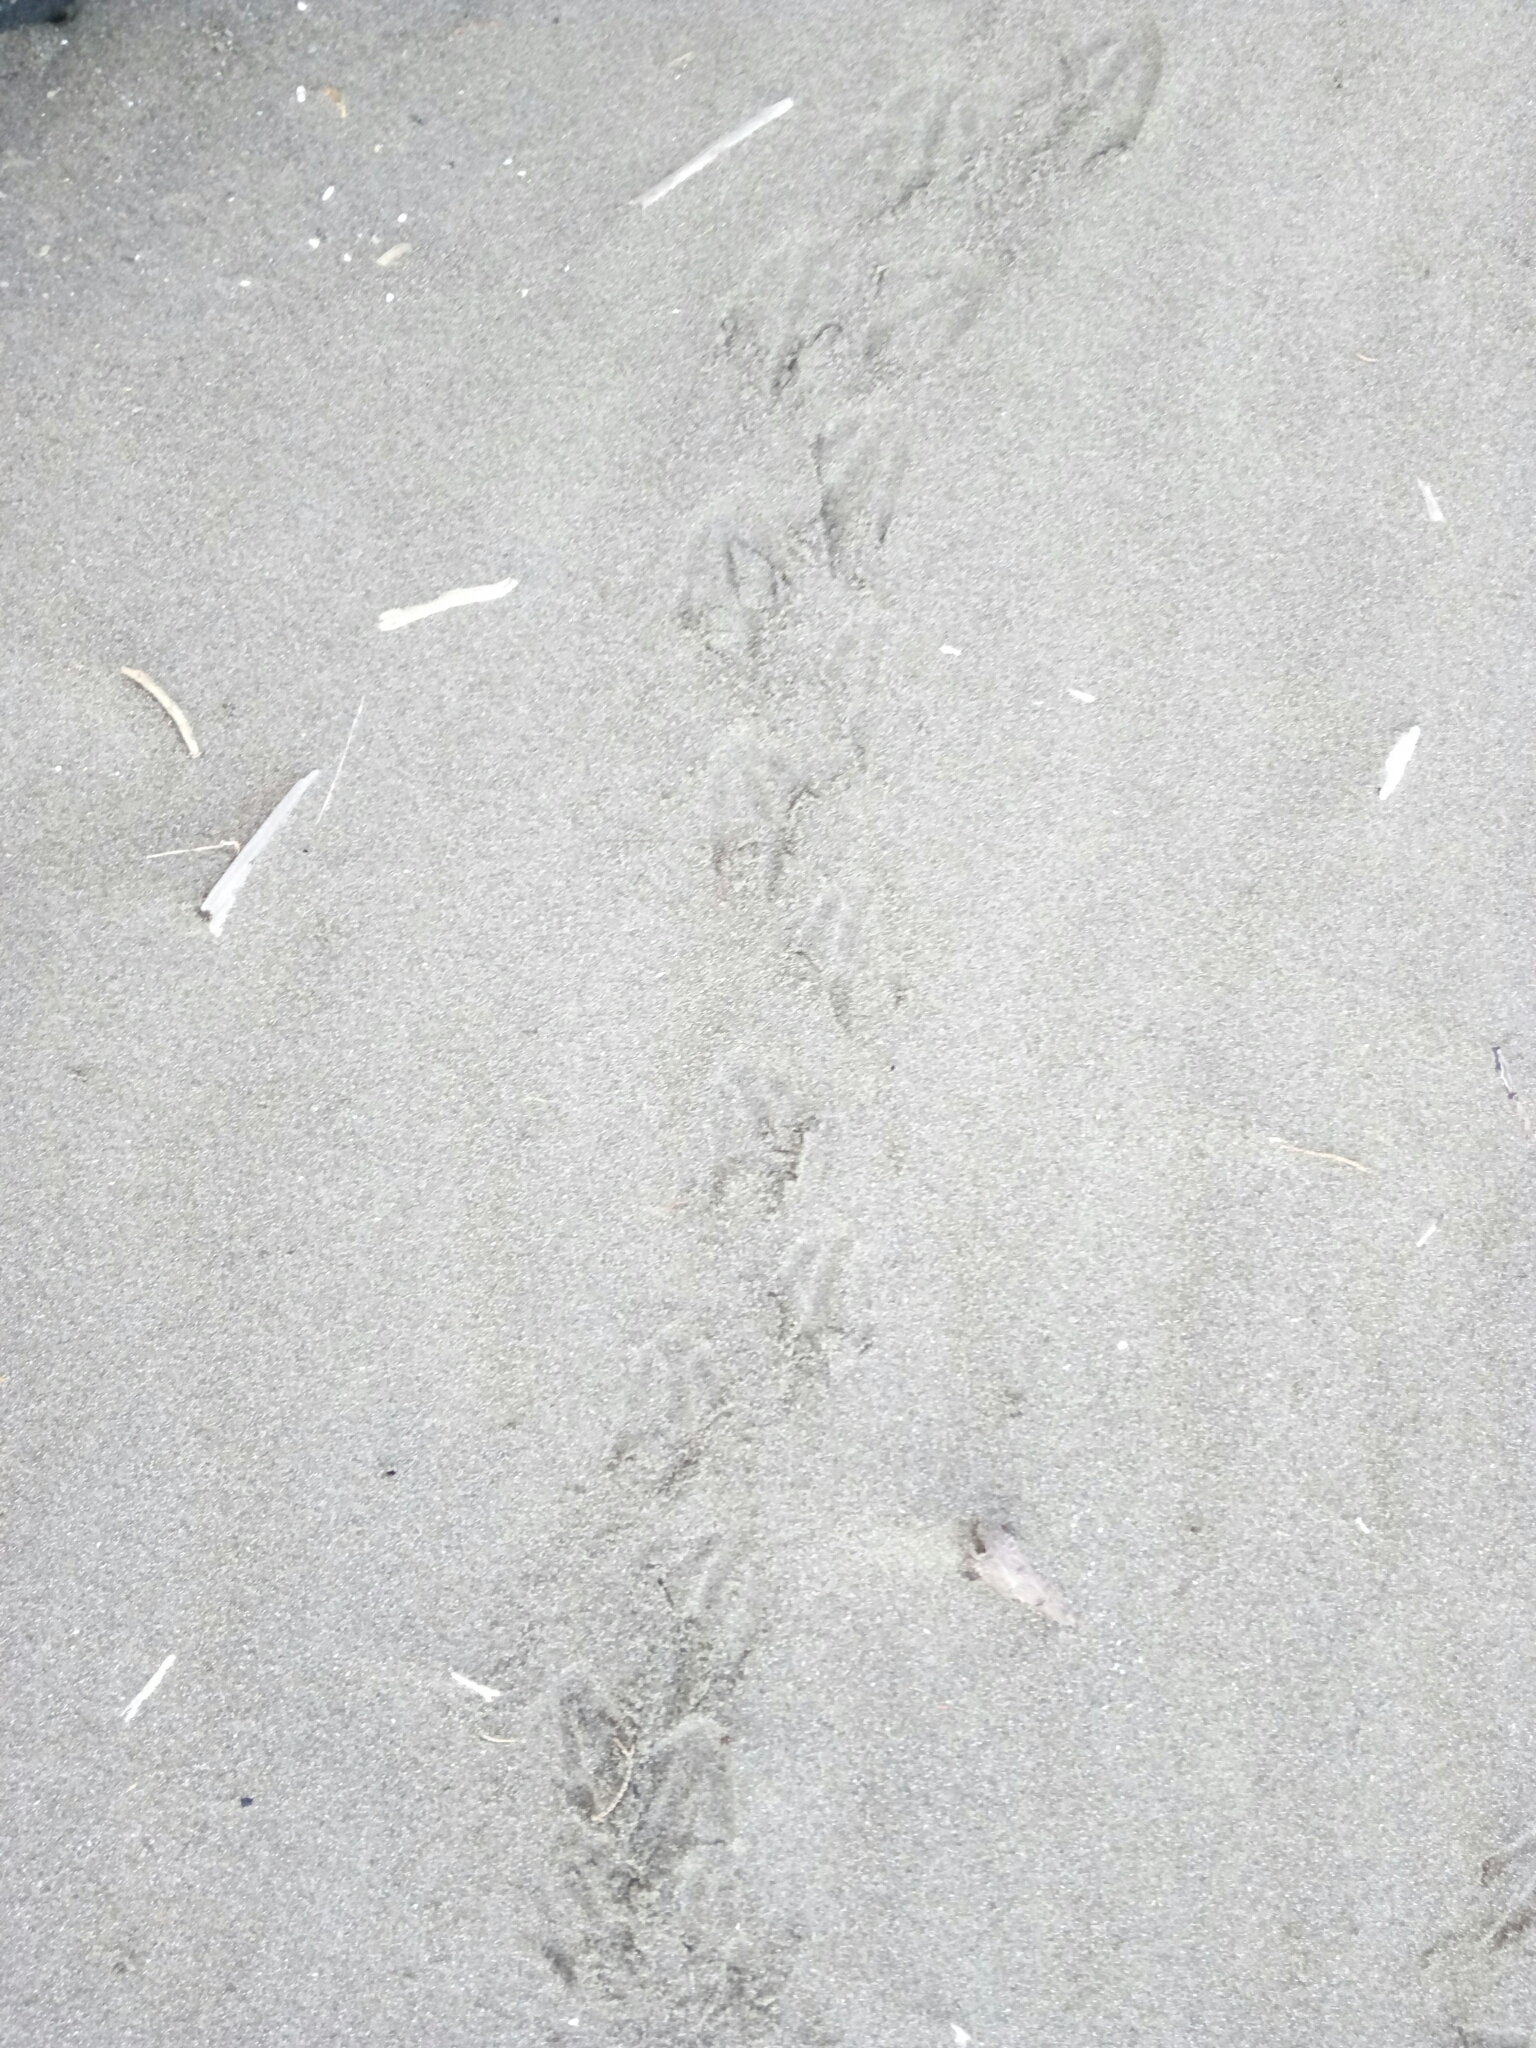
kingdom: Animalia
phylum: Chordata
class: Aves
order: Sphenisciformes
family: Spheniscidae
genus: Eudyptula
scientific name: Eudyptula minor
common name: Little penguin
